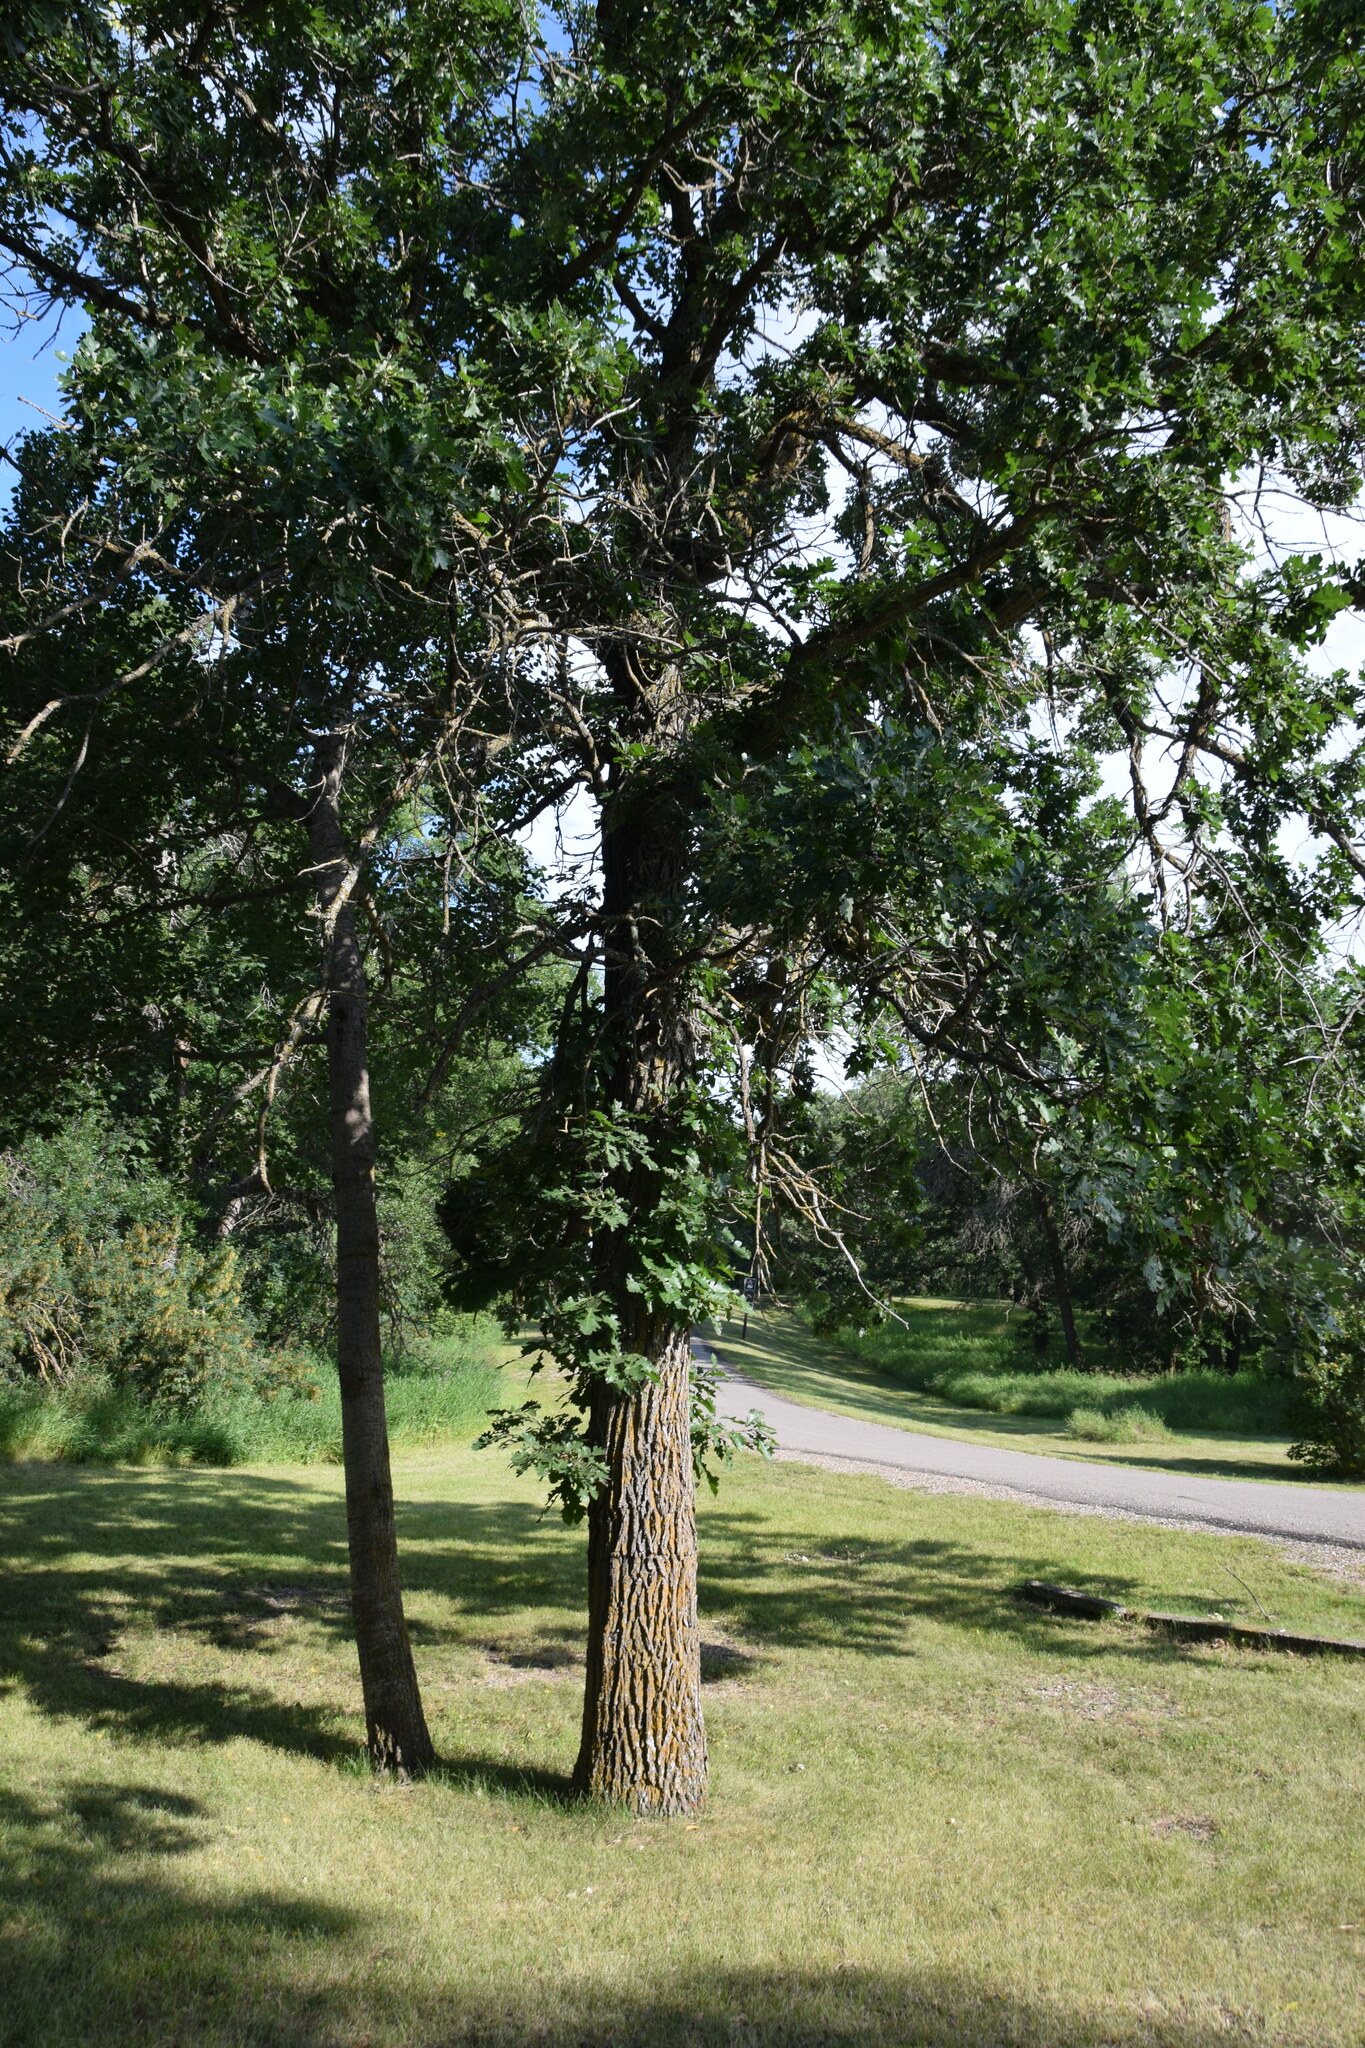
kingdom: Plantae
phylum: Tracheophyta
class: Magnoliopsida
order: Fagales
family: Fagaceae
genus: Quercus
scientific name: Quercus macrocarpa
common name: Bur oak
